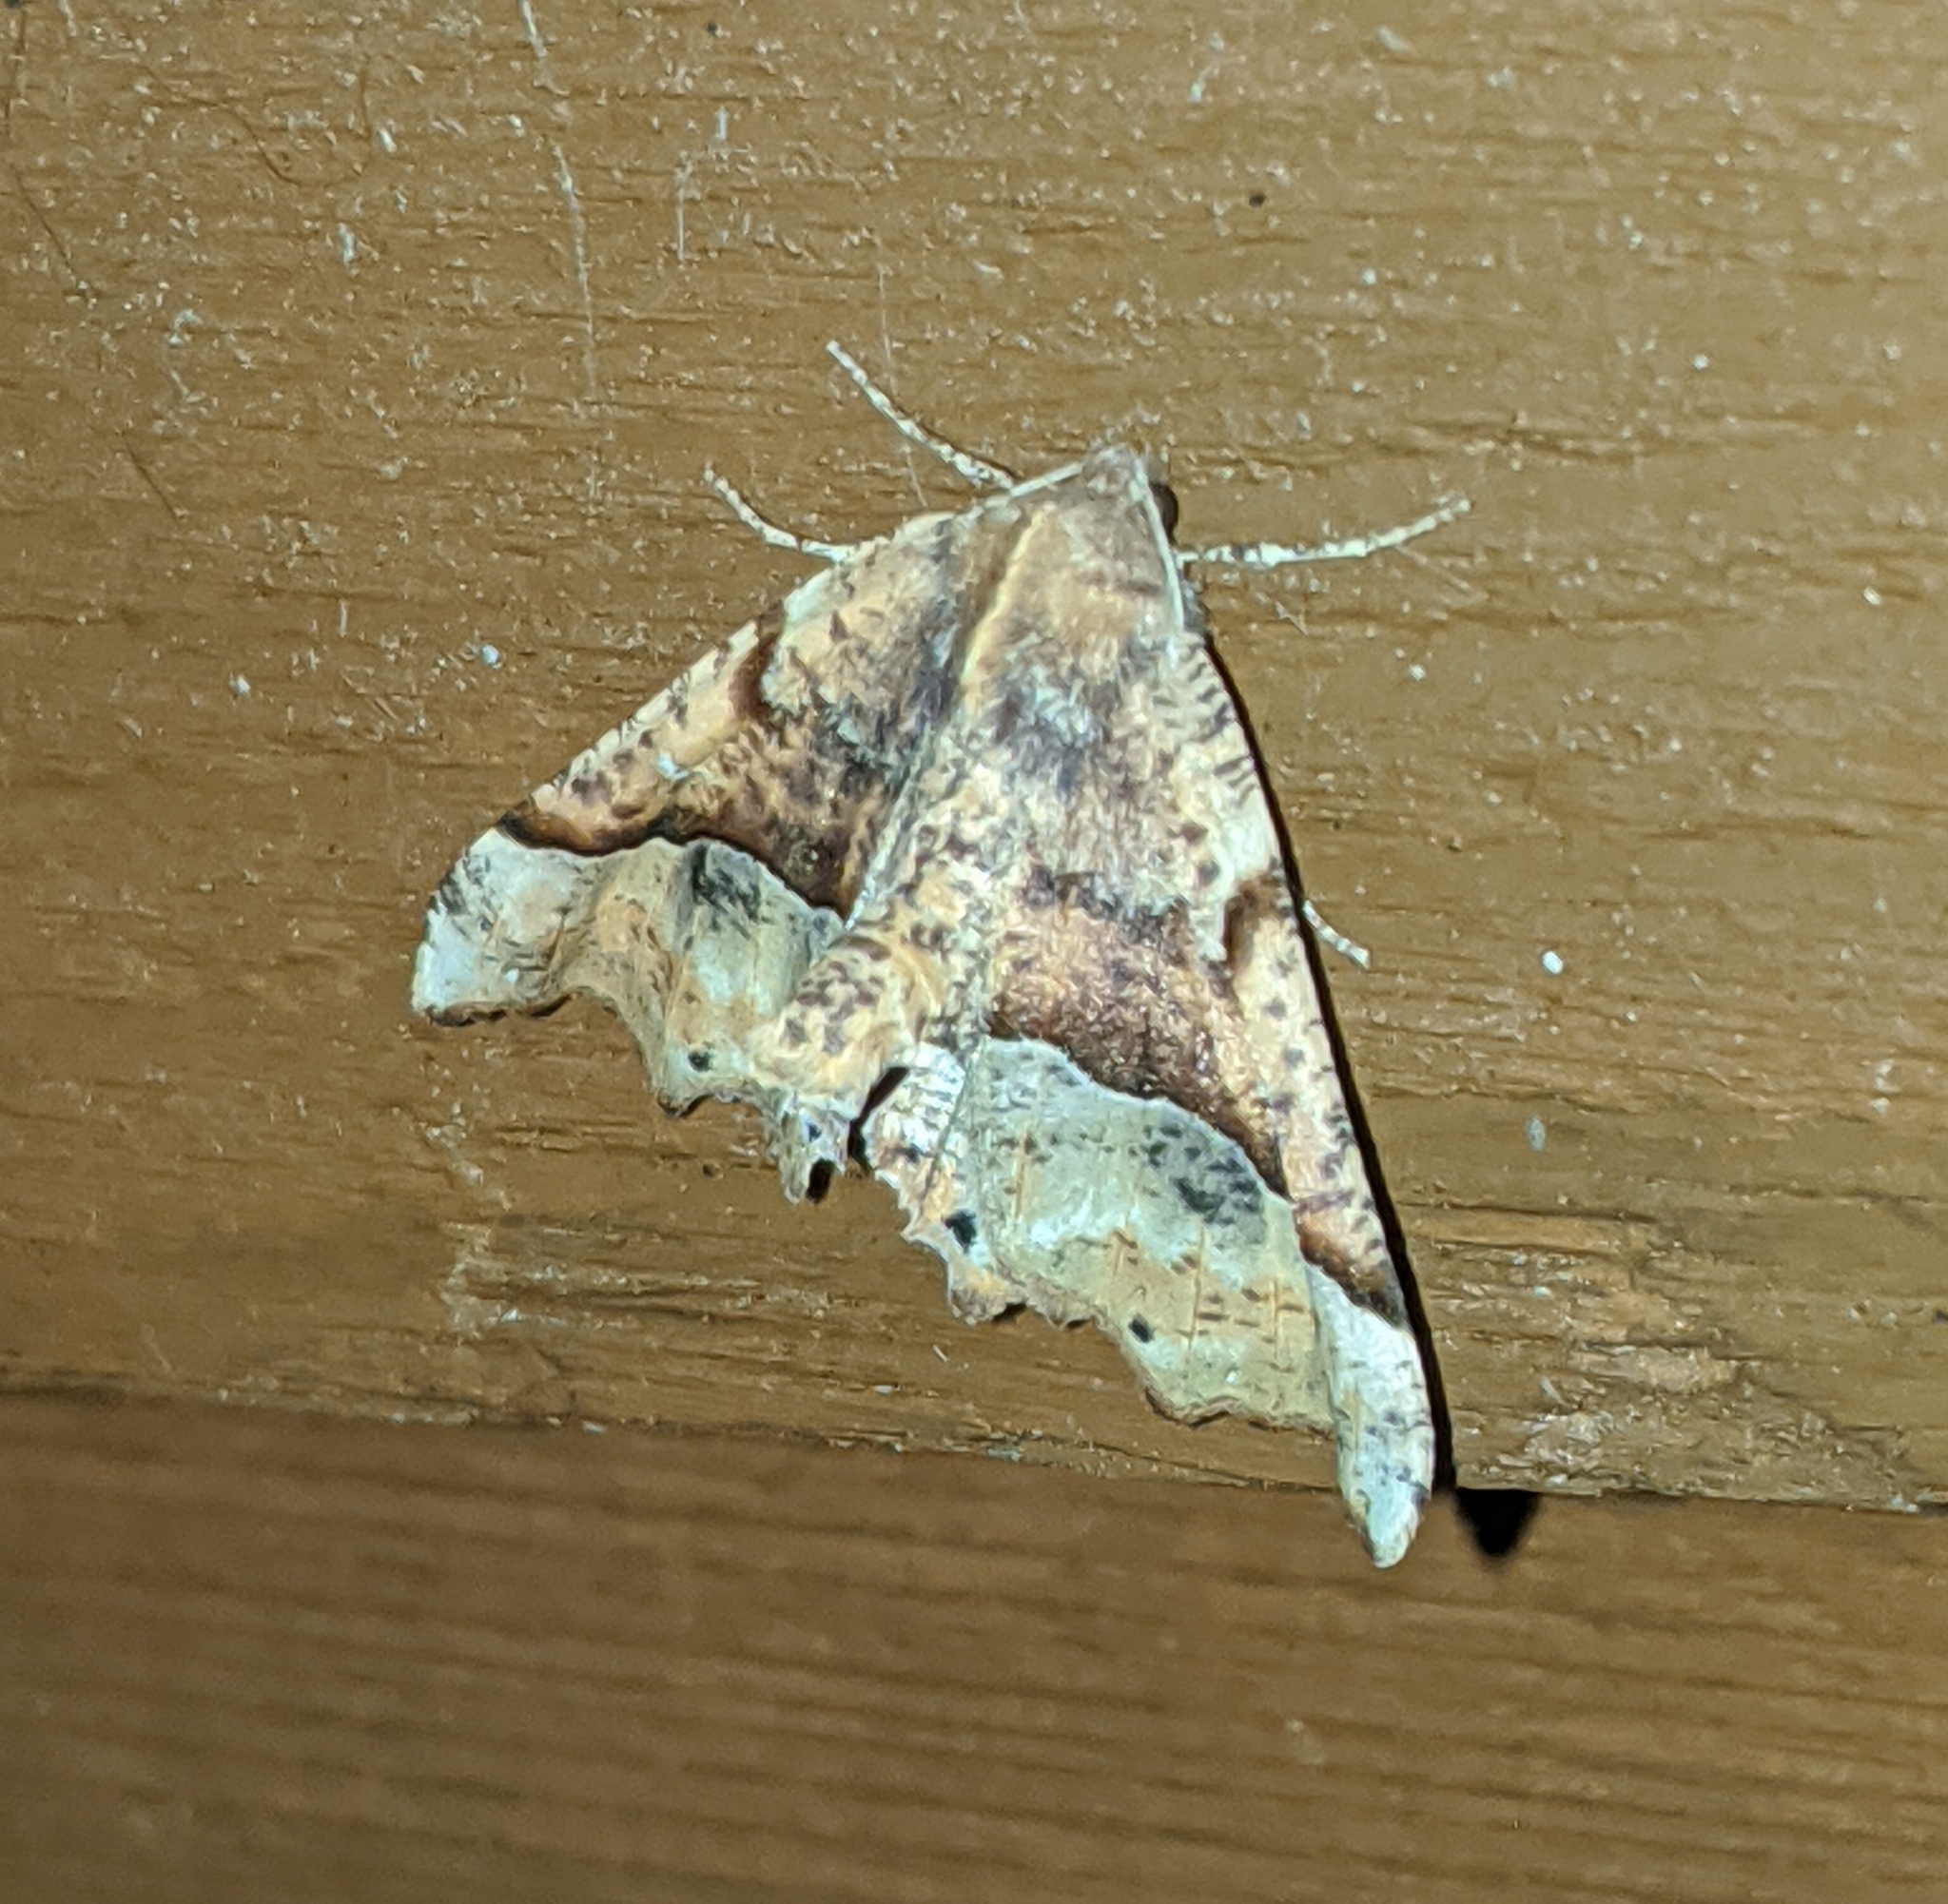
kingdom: Animalia
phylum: Arthropoda
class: Insecta
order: Lepidoptera
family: Geometridae
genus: Pero
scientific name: Pero morrisonaria
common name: Morrison's pero
